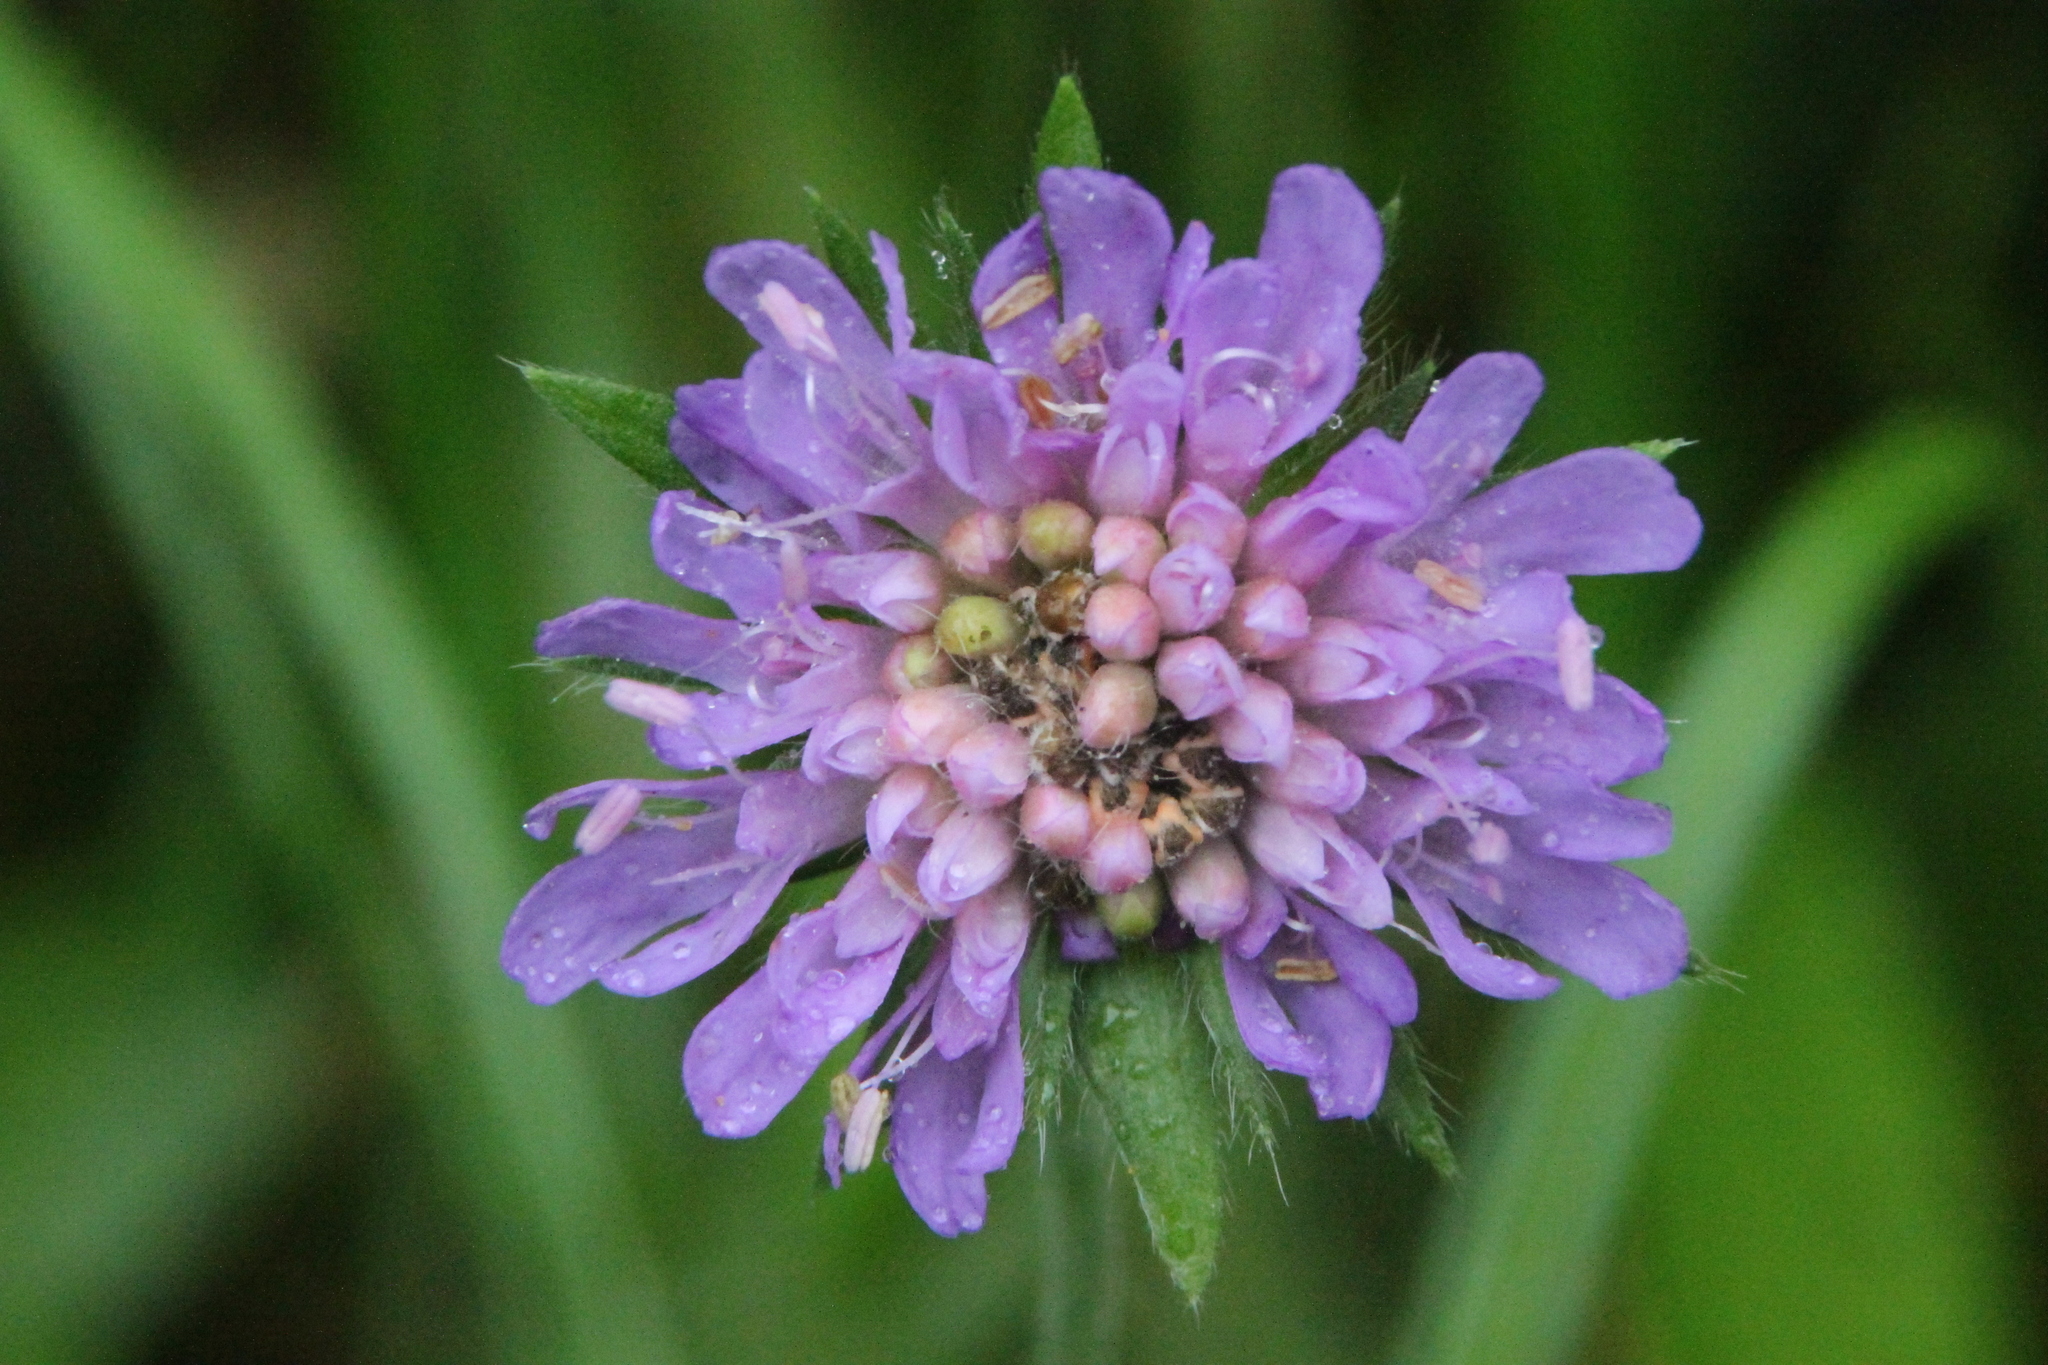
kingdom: Plantae
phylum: Tracheophyta
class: Magnoliopsida
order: Dipsacales
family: Caprifoliaceae
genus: Knautia
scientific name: Knautia arvensis
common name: Field scabiosa
